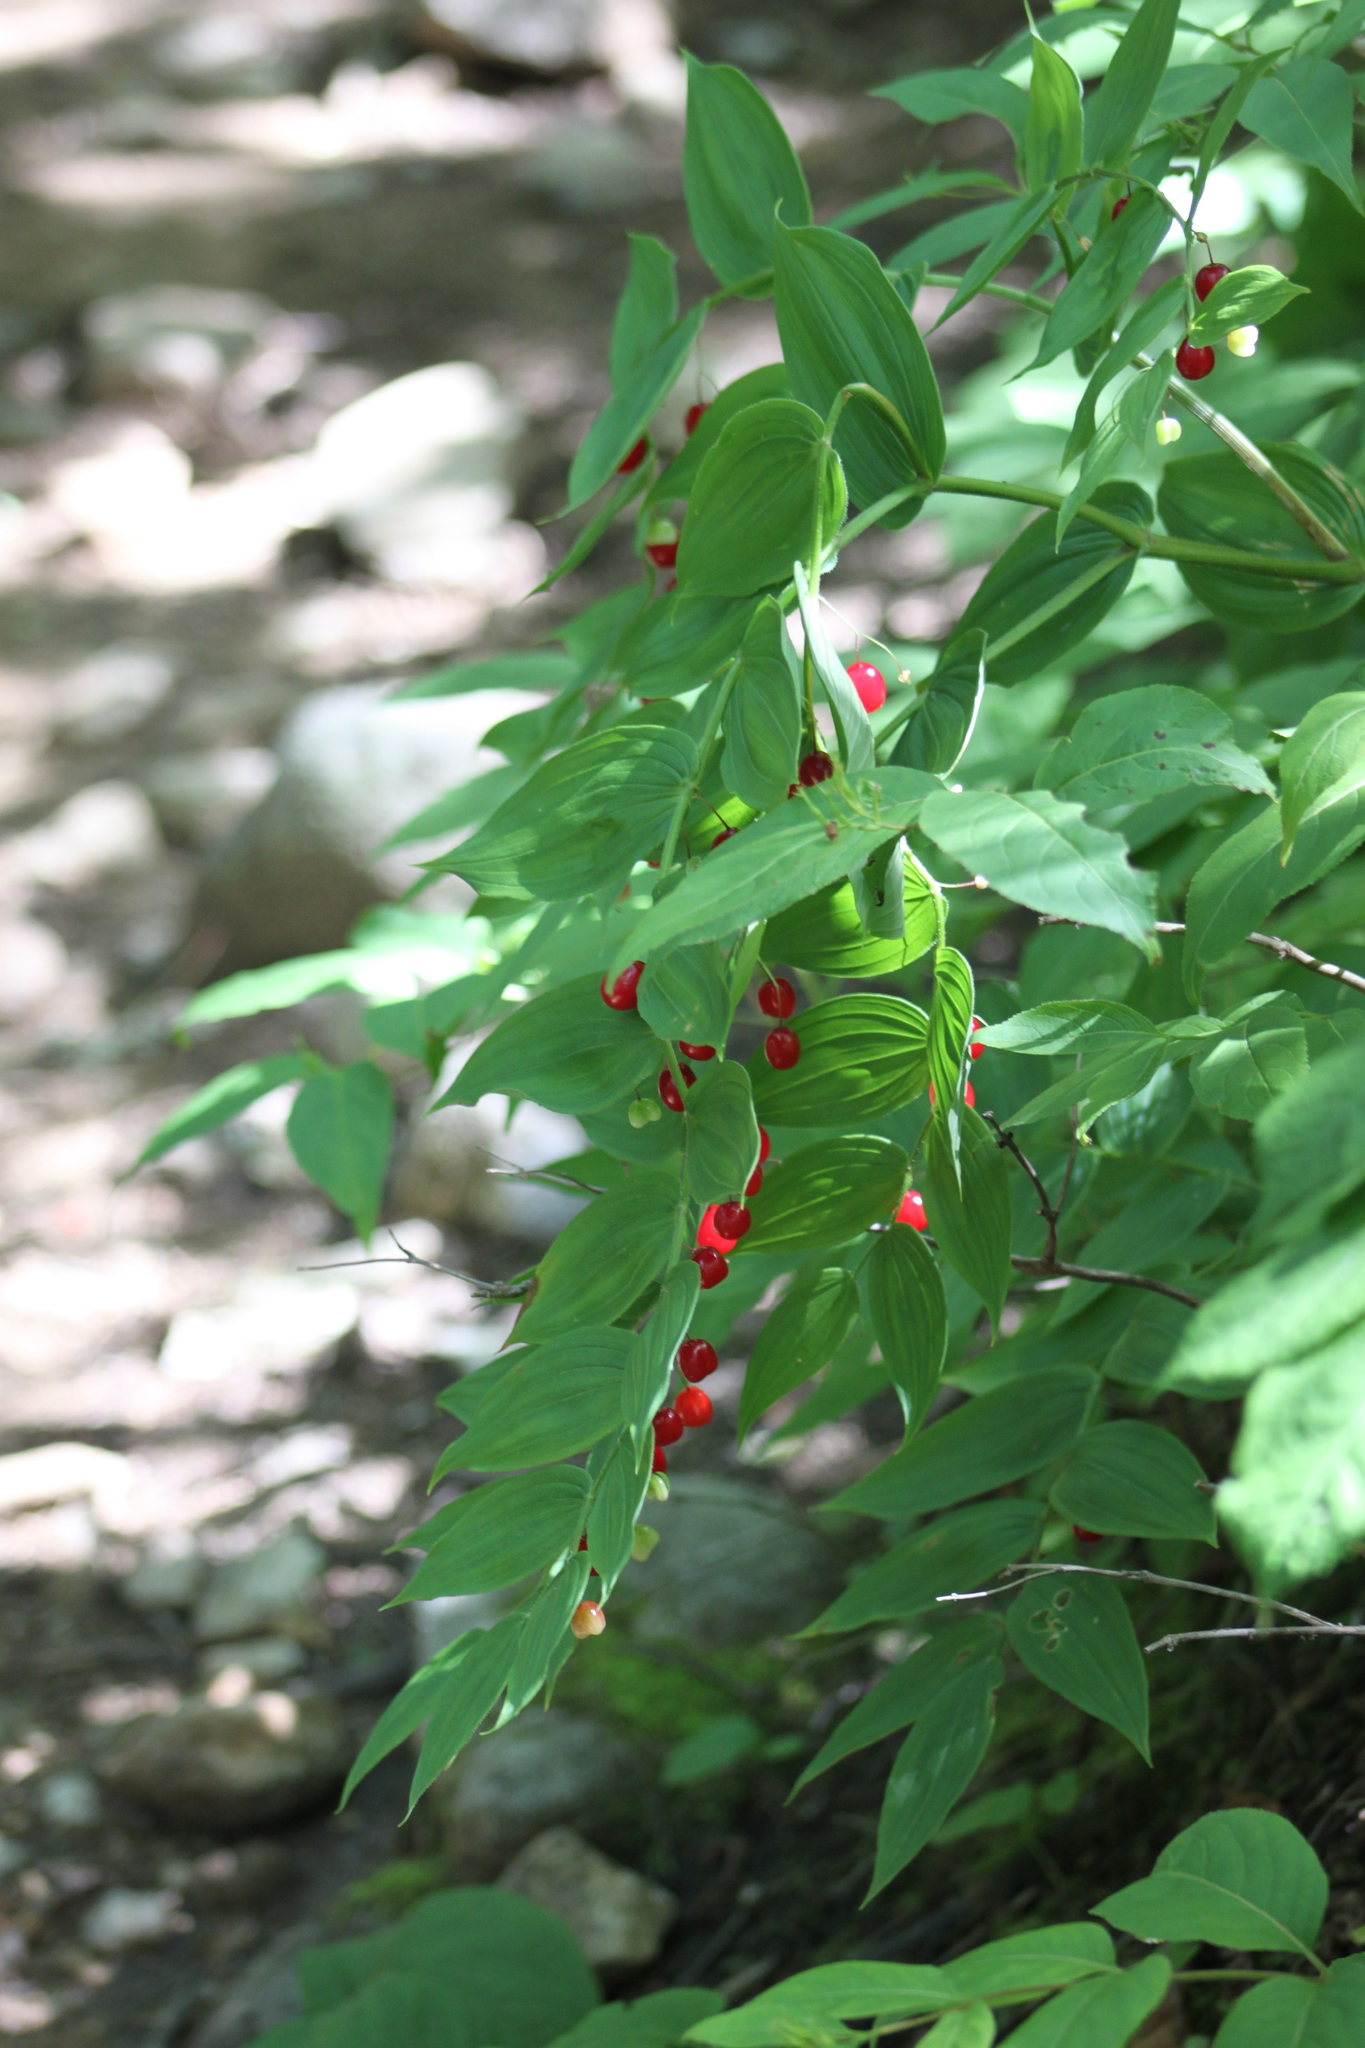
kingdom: Plantae
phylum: Tracheophyta
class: Liliopsida
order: Liliales
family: Liliaceae
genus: Streptopus
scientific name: Streptopus lanceolatus
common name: Rose mandarin
